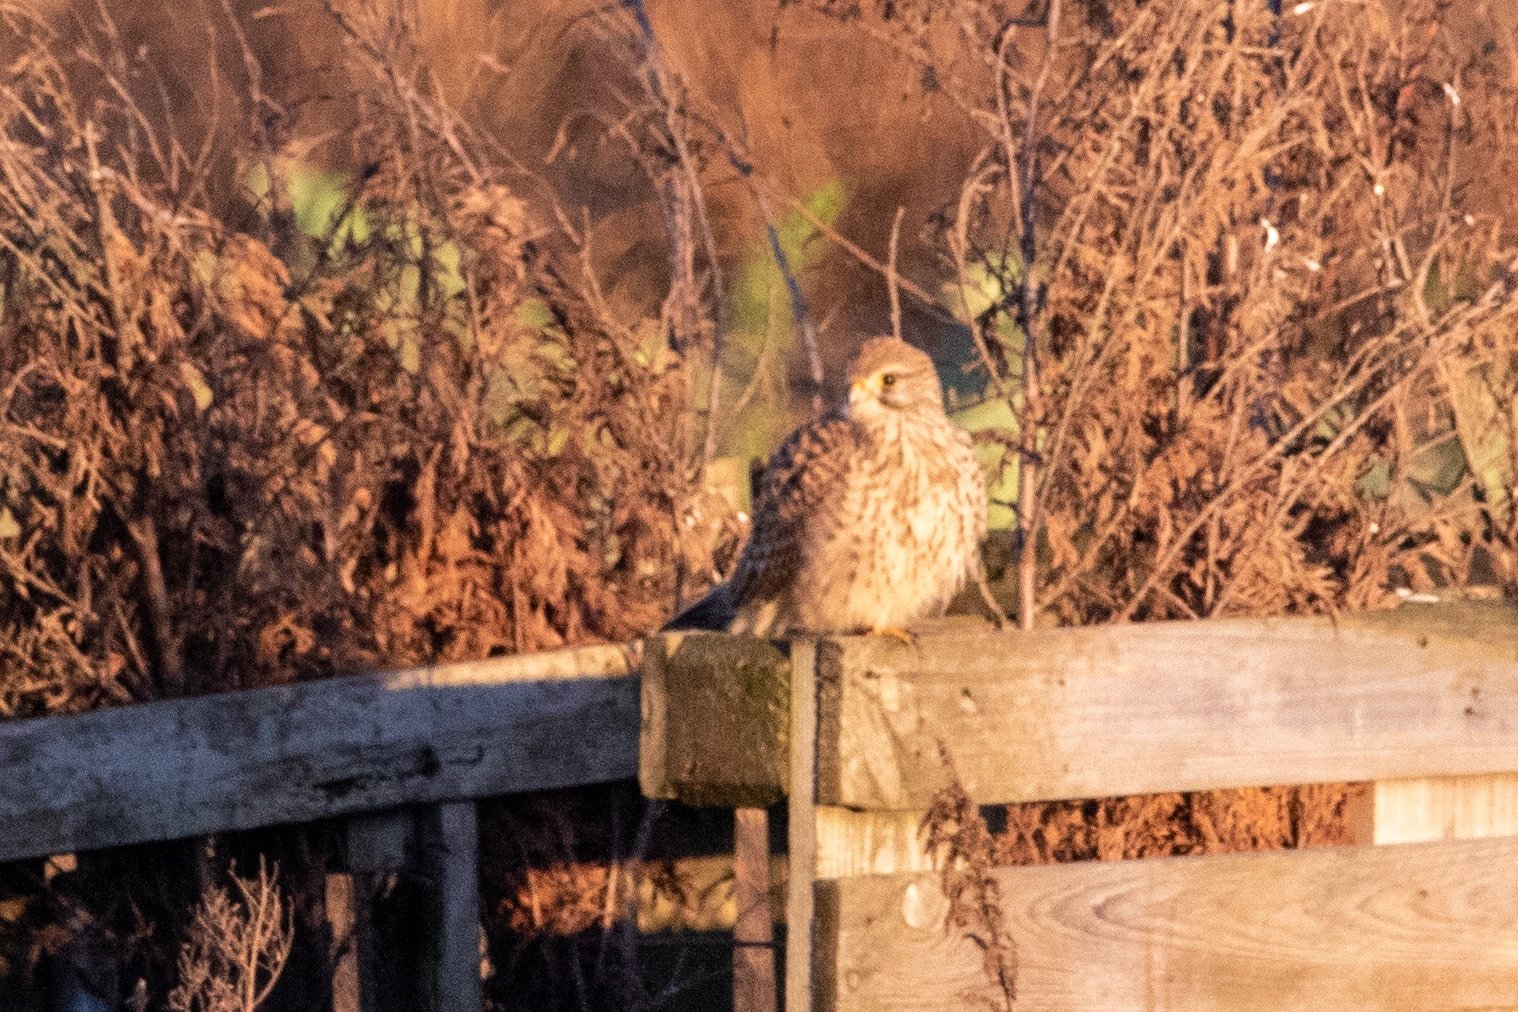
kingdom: Animalia
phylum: Chordata
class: Aves
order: Falconiformes
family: Falconidae
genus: Falco
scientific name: Falco tinnunculus
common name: Common kestrel
